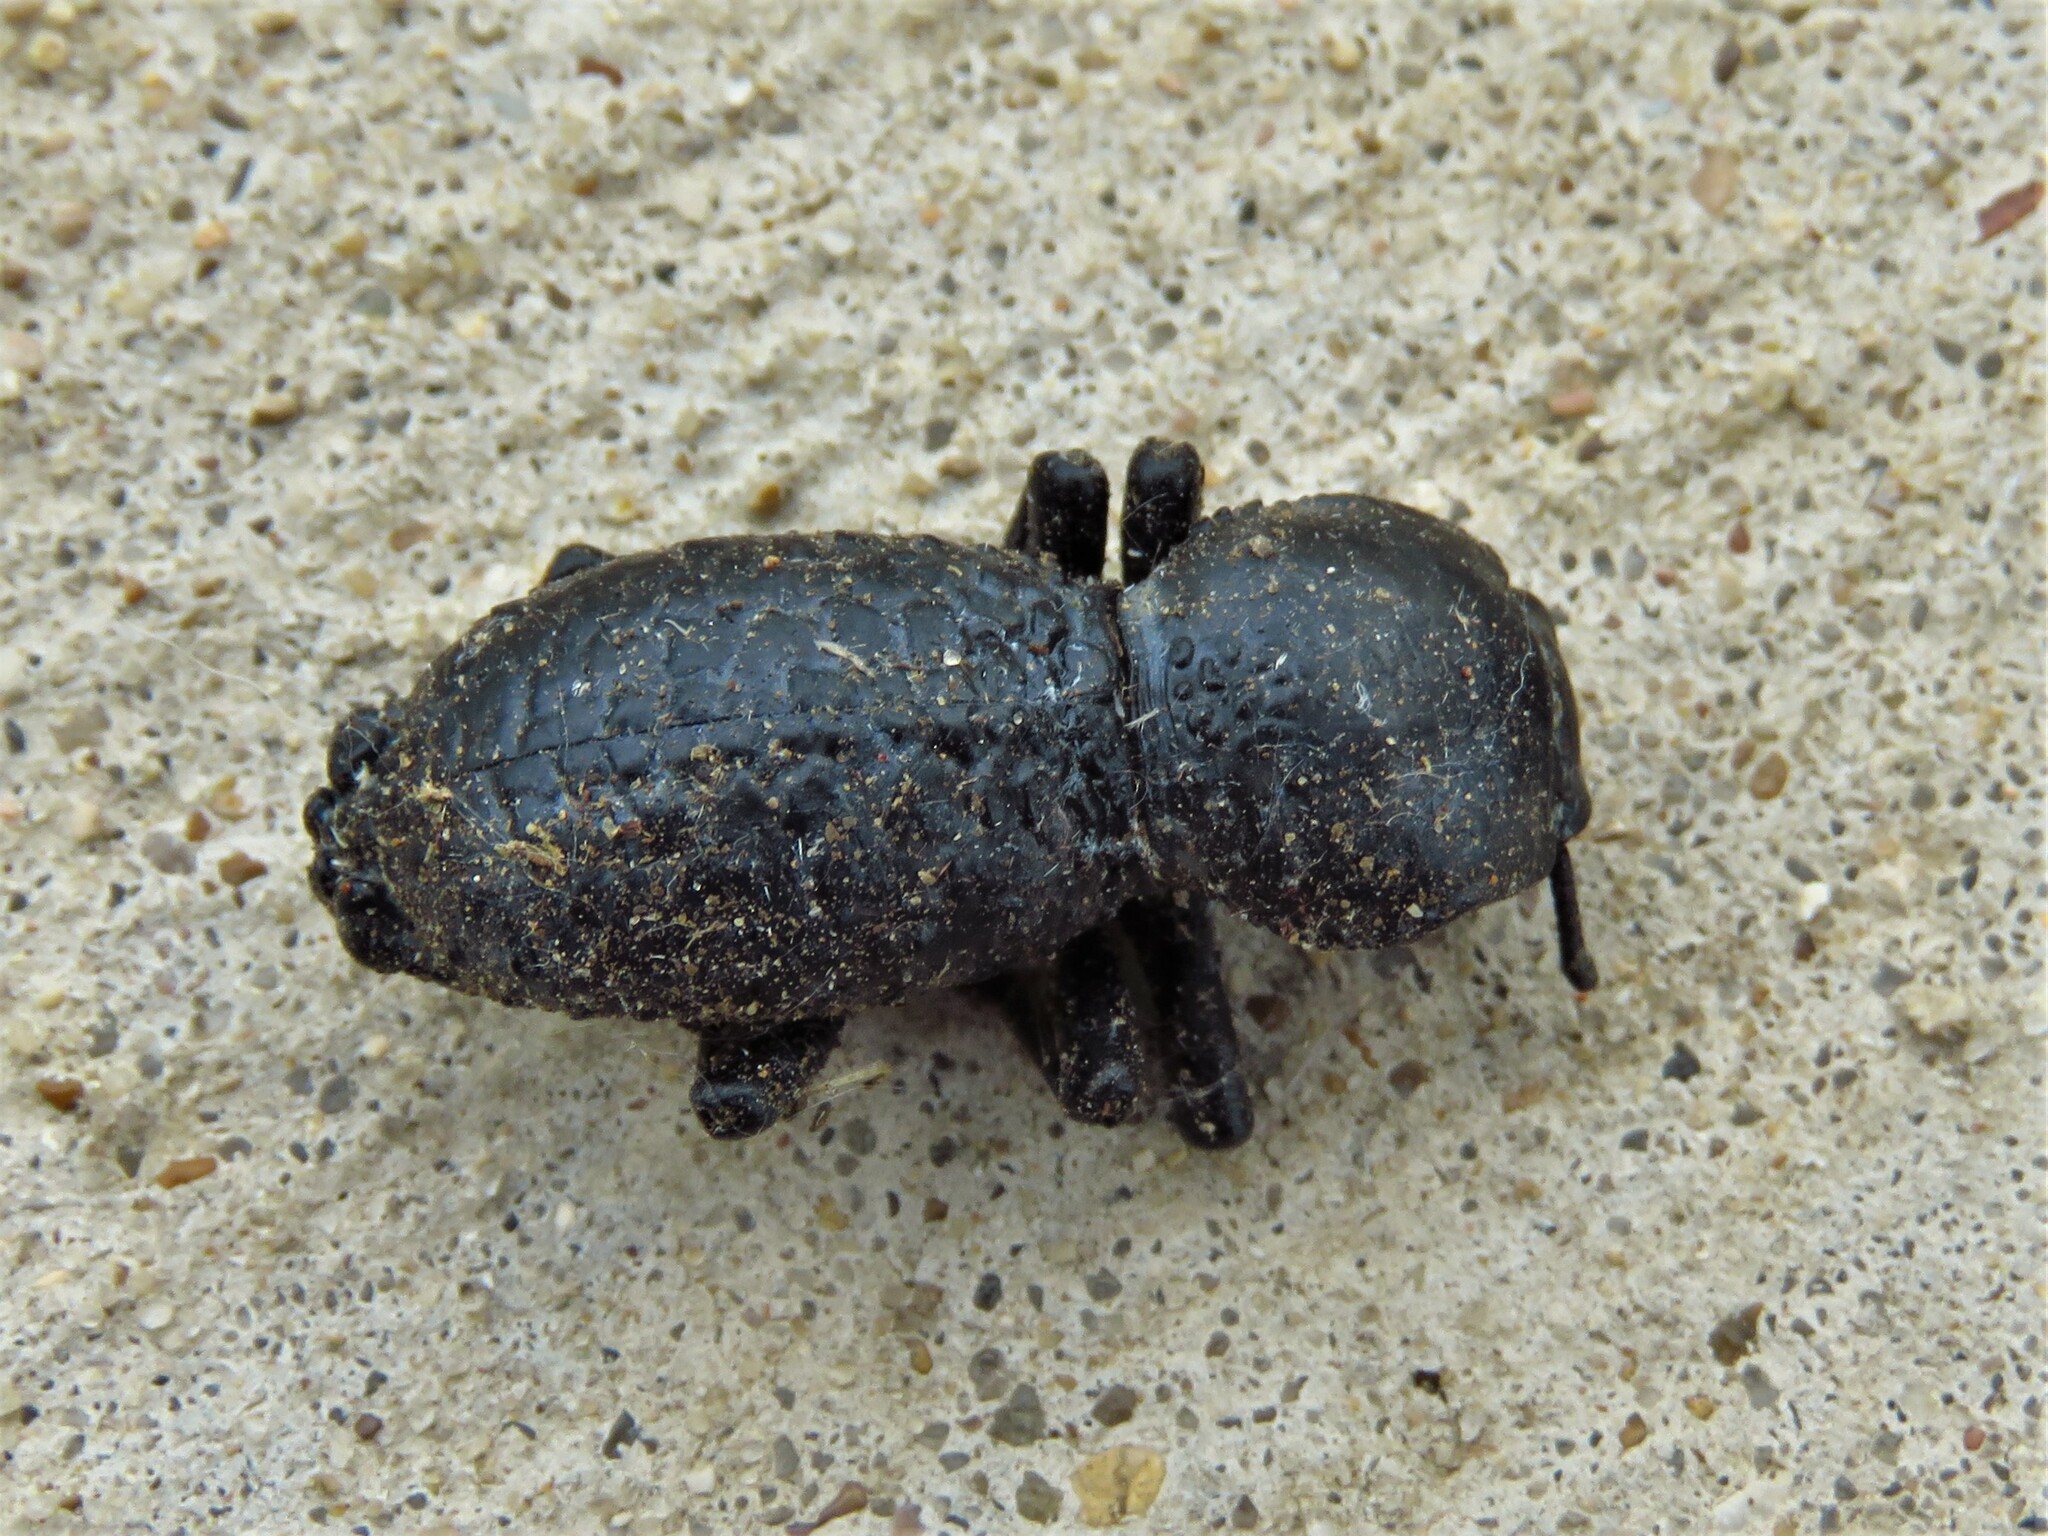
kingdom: Animalia
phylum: Arthropoda
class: Insecta
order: Coleoptera
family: Zopheridae
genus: Zopherus
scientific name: Zopherus nodulosus
